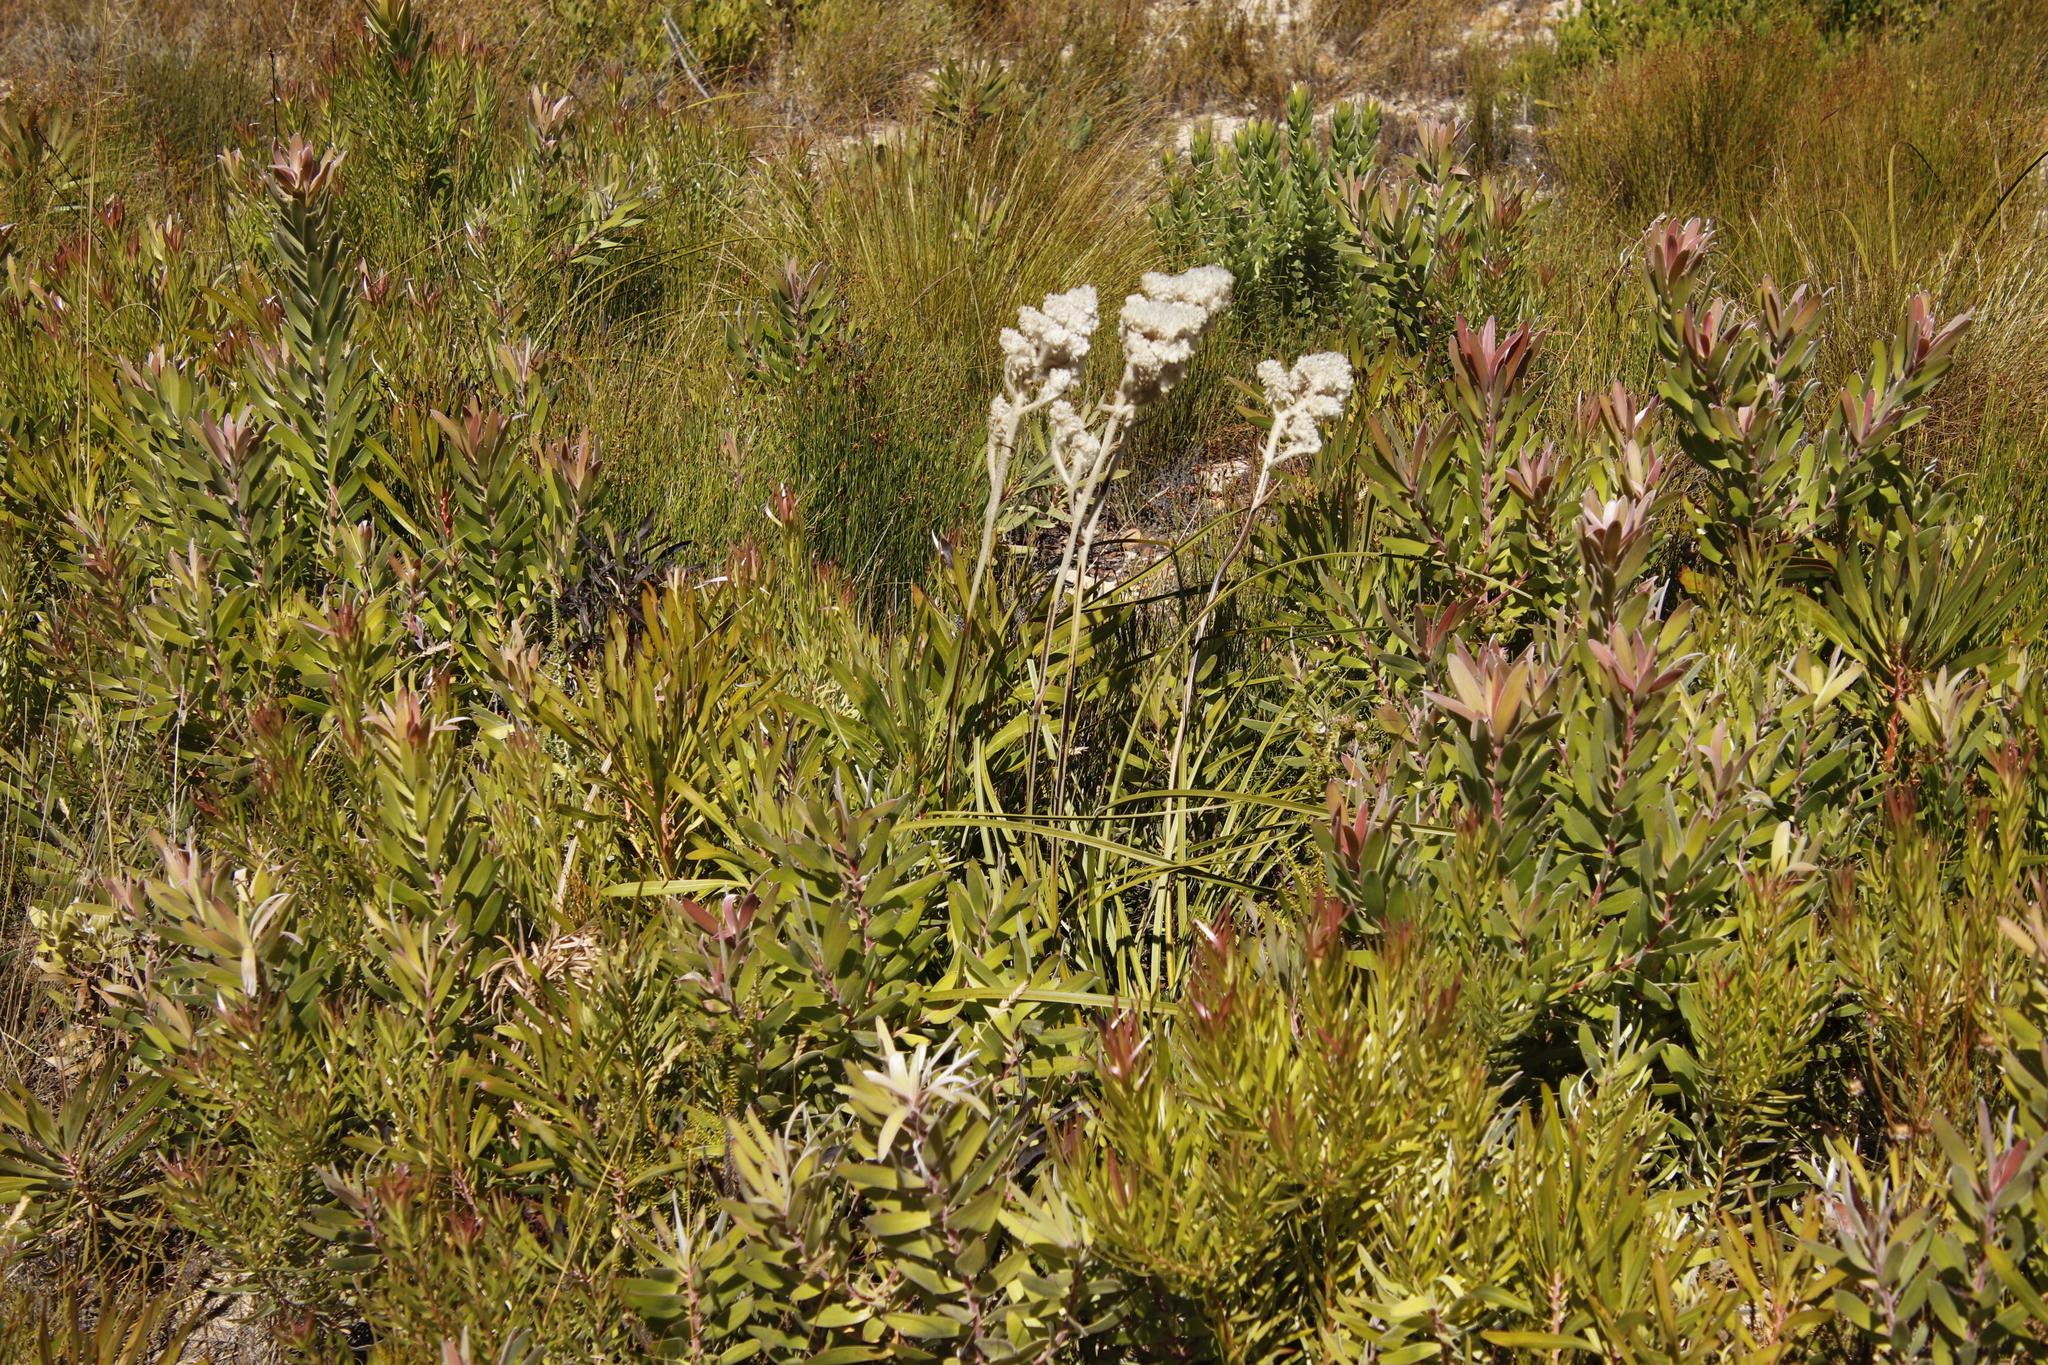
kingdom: Plantae
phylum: Tracheophyta
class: Liliopsida
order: Asparagales
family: Lanariaceae
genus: Lanaria
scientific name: Lanaria lanata
